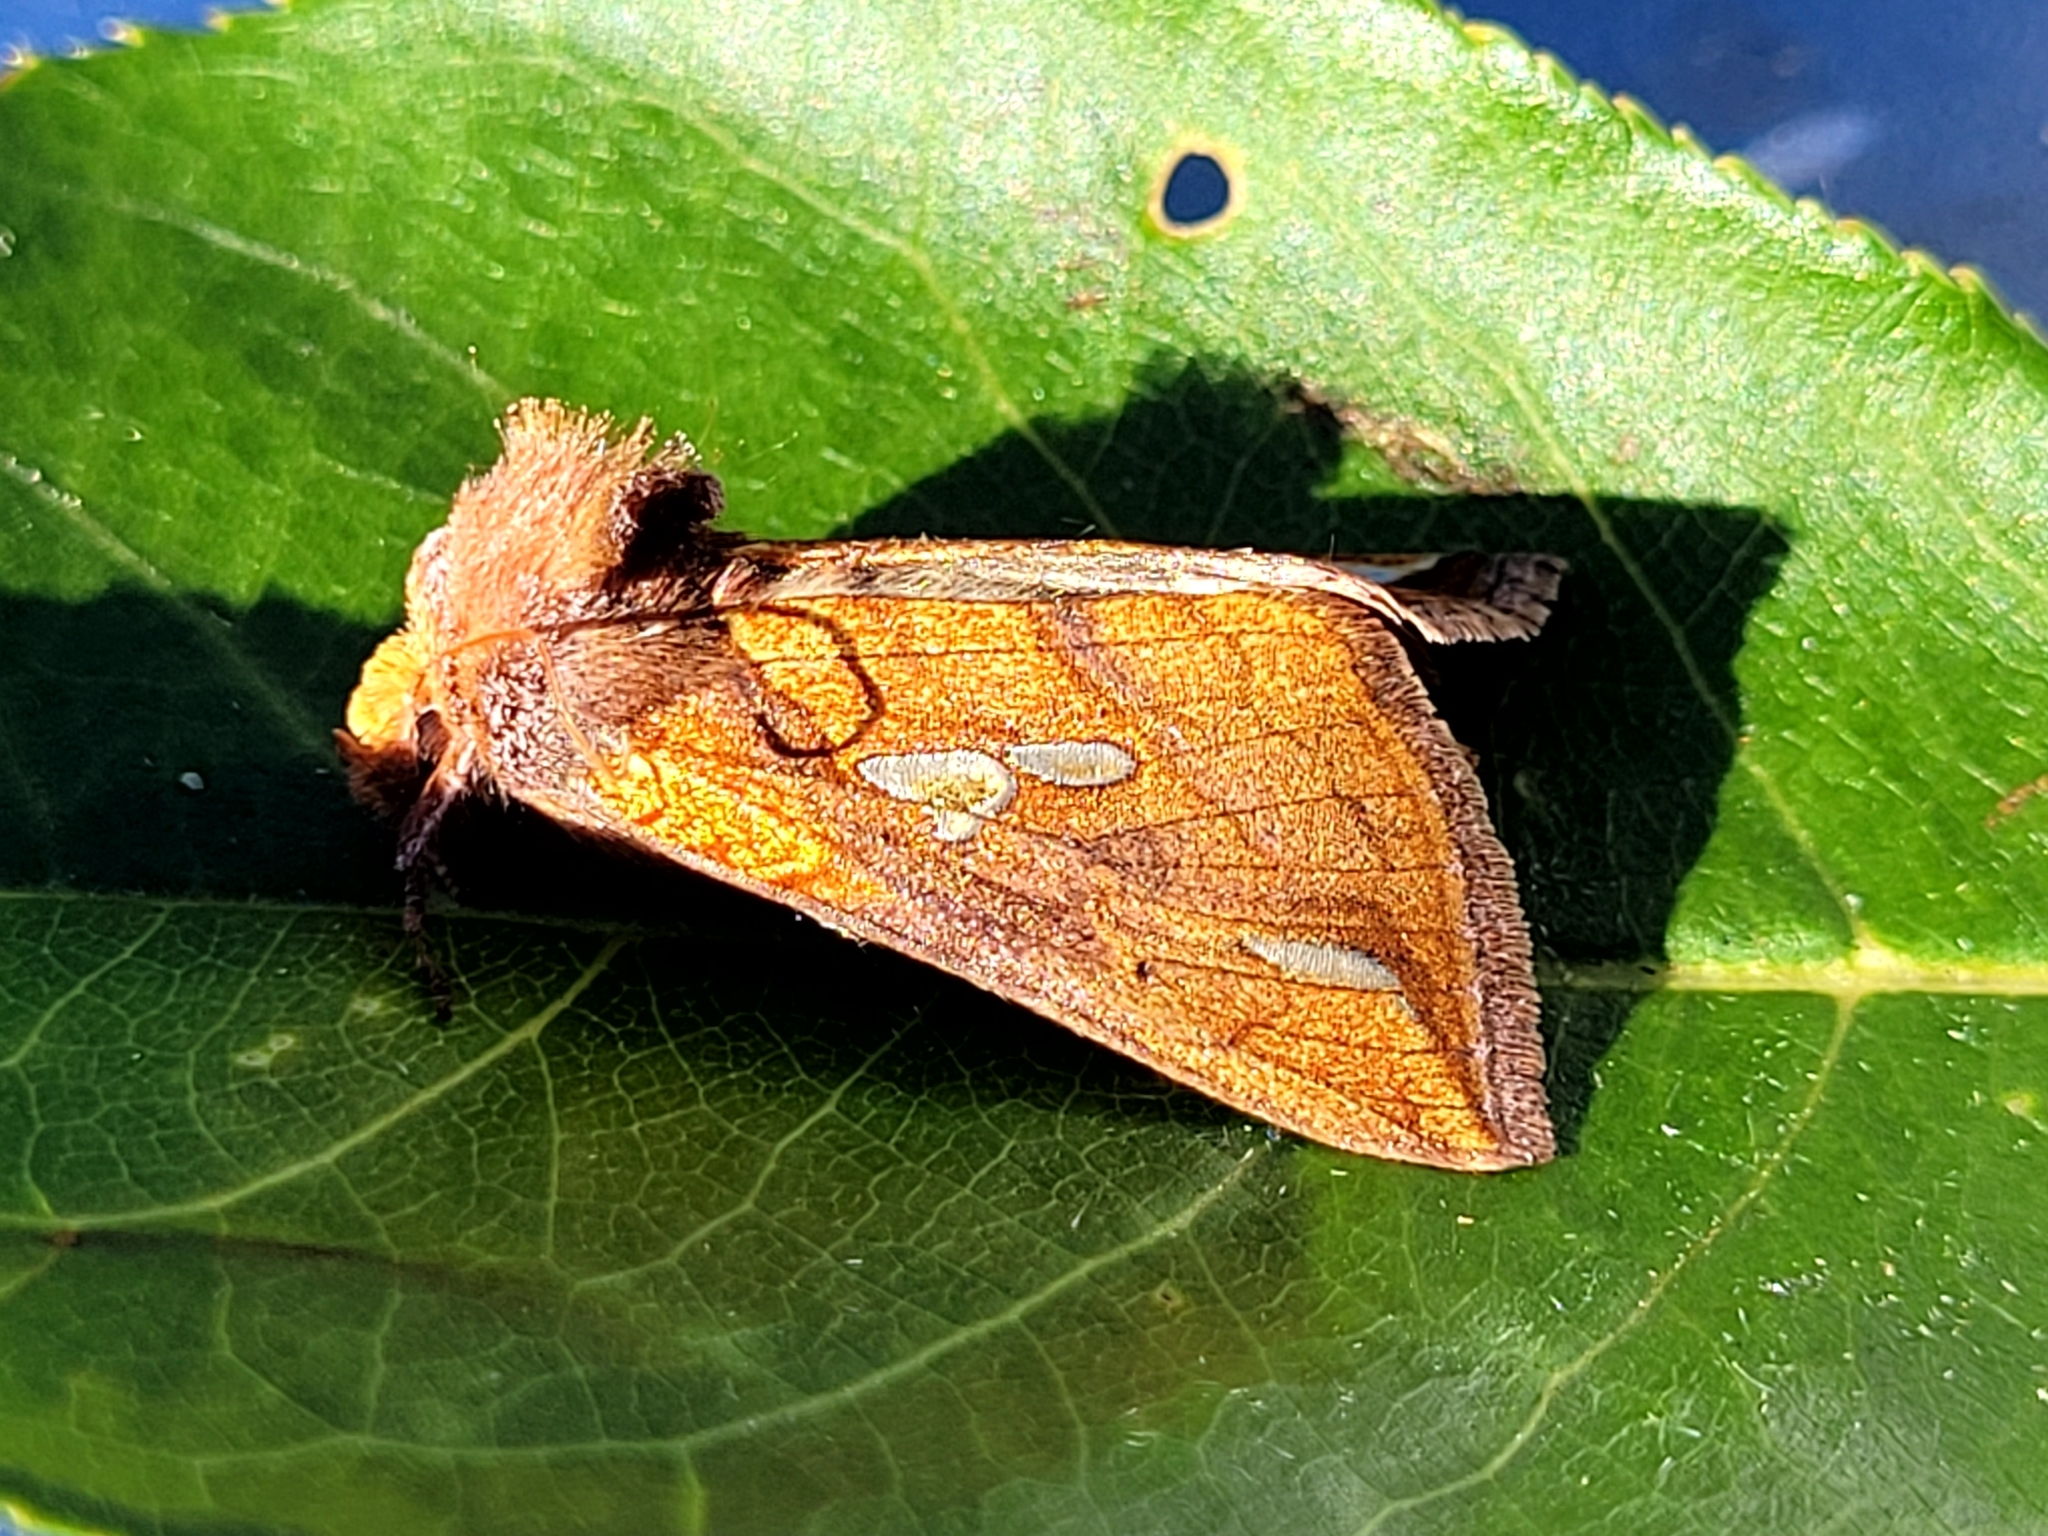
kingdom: Animalia
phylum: Arthropoda
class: Insecta
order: Lepidoptera
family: Noctuidae
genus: Plusia
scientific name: Plusia putnami
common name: Lempke's gold spot
